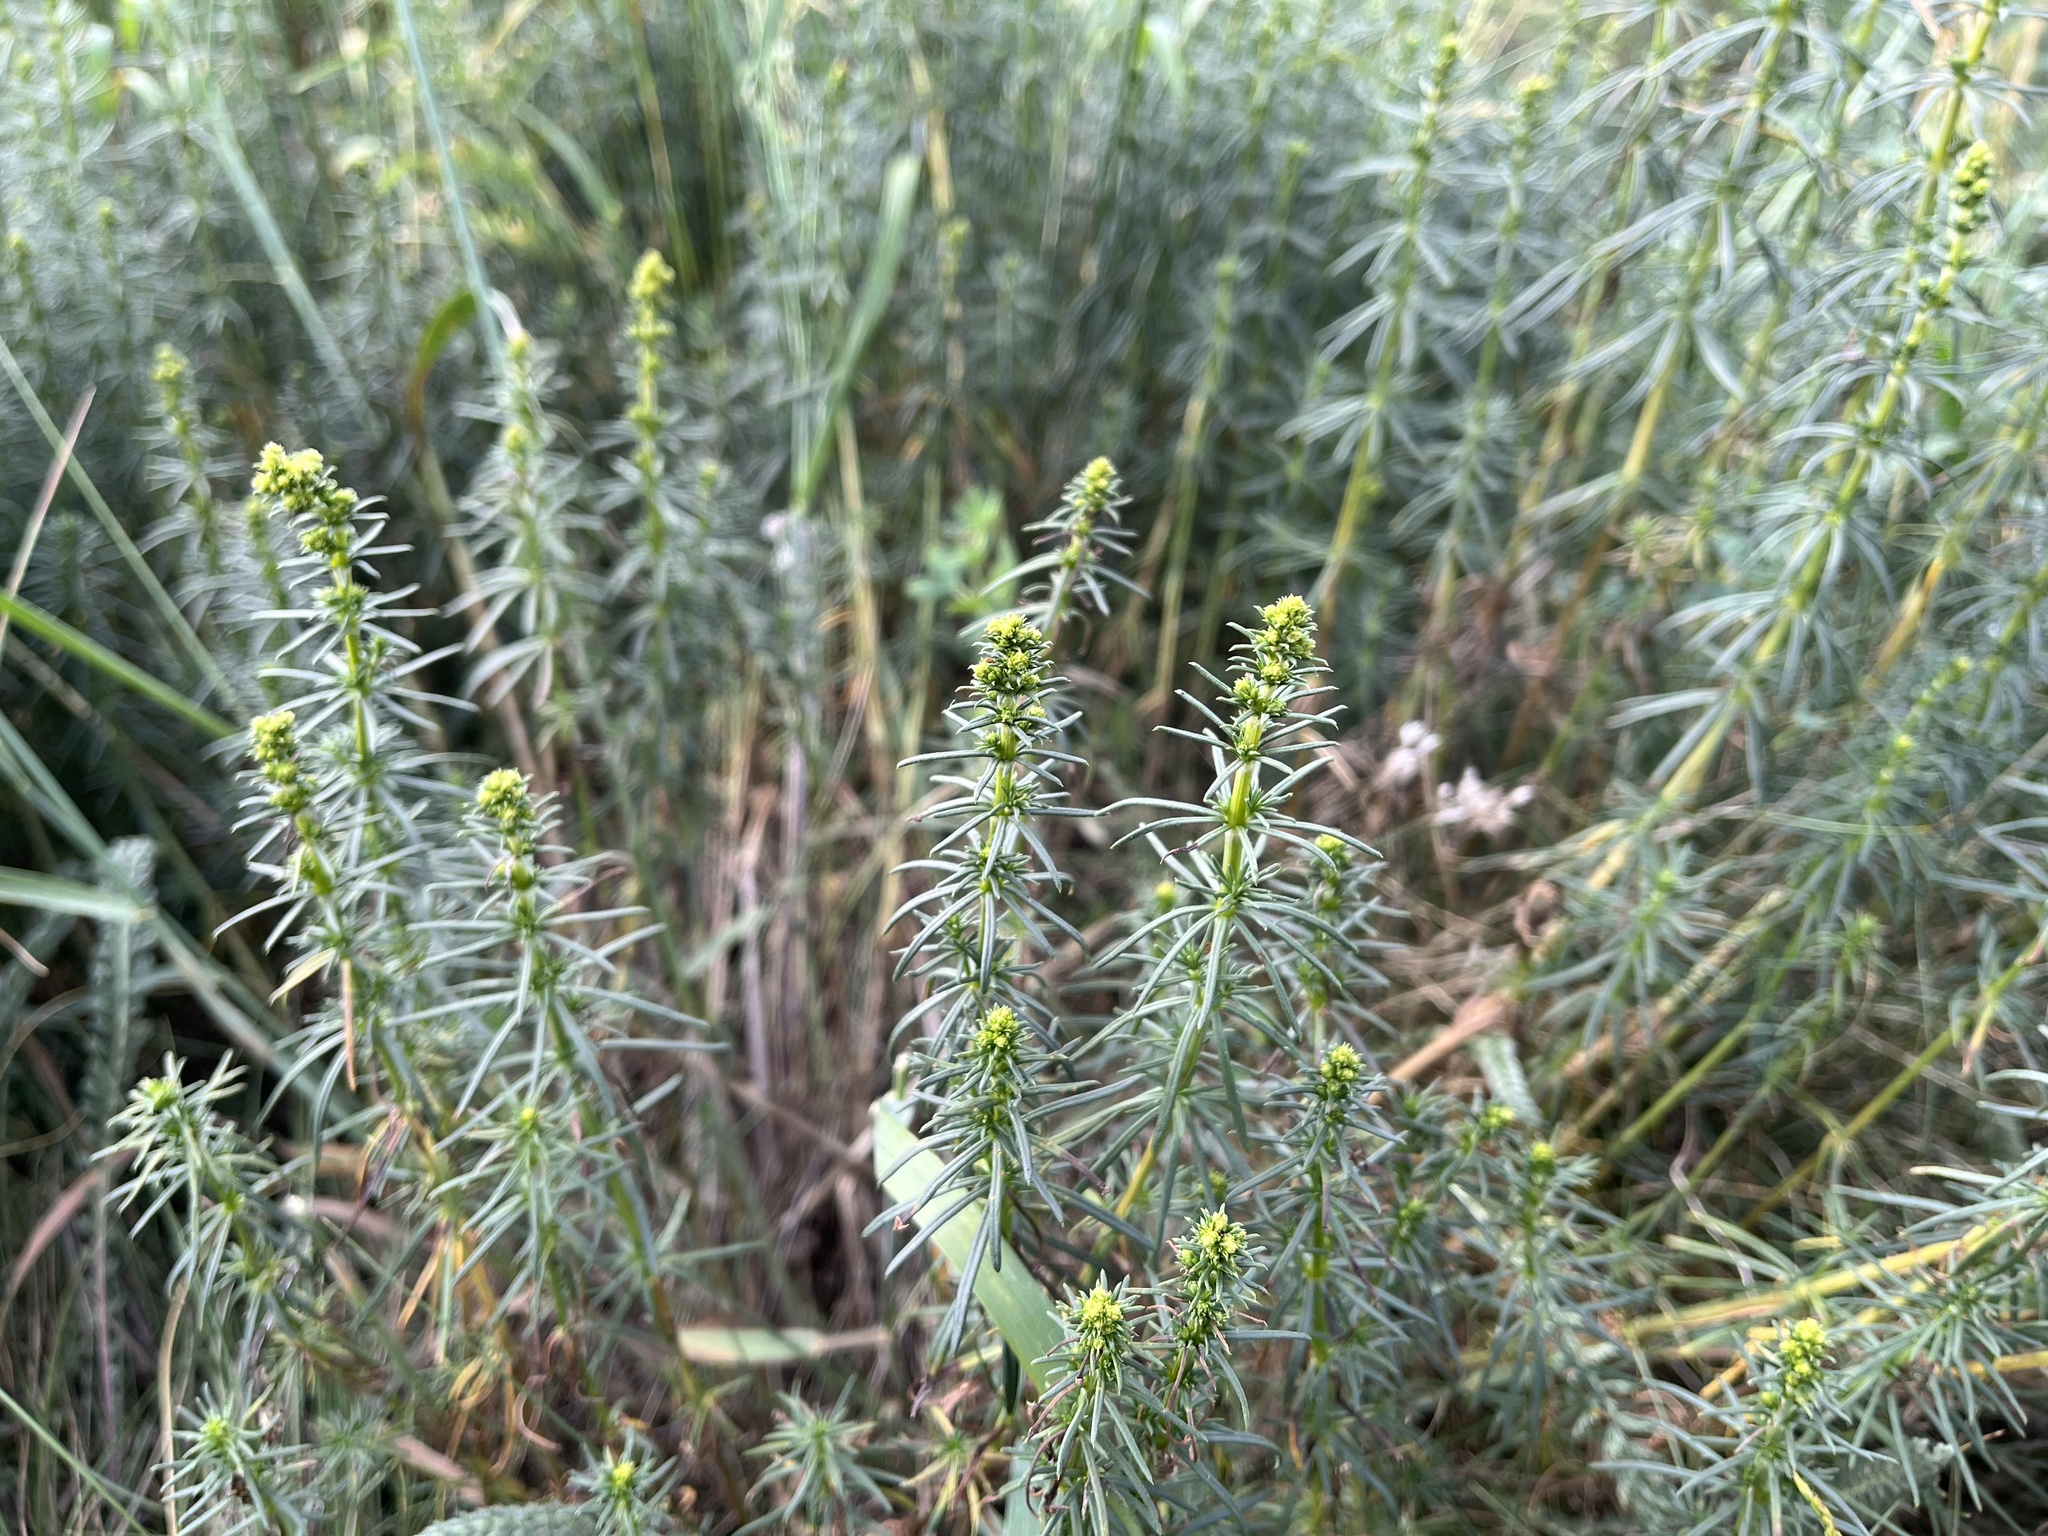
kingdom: Plantae
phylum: Tracheophyta
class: Magnoliopsida
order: Gentianales
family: Rubiaceae
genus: Galium
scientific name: Galium verum
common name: Lady's bedstraw
